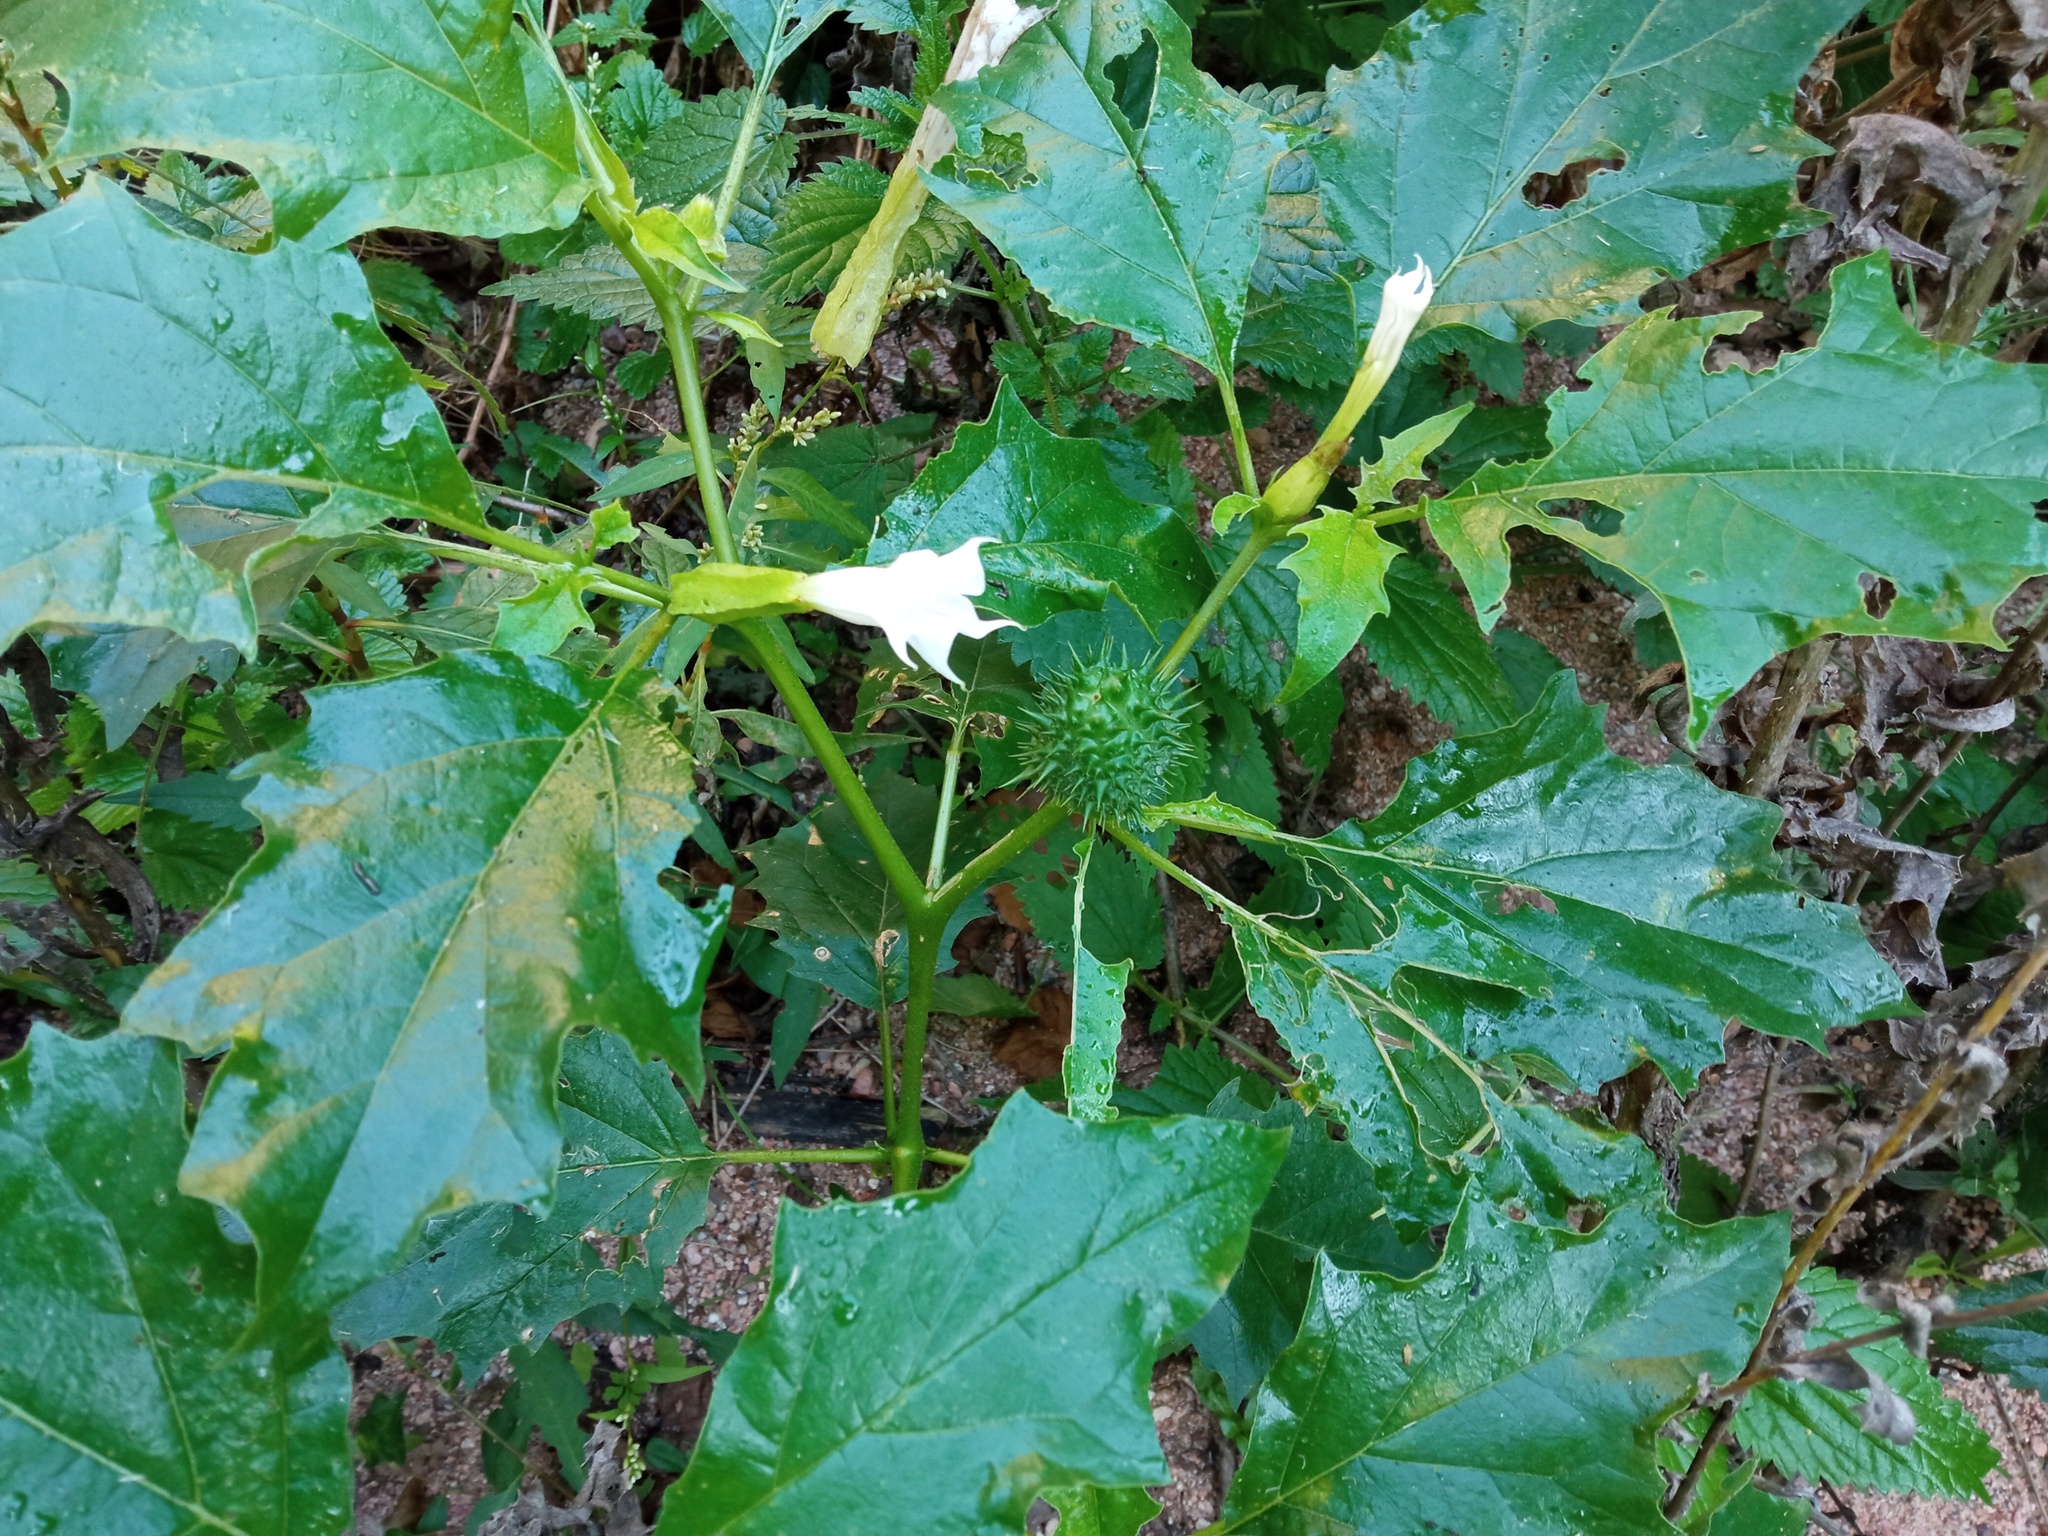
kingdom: Plantae
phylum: Tracheophyta
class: Magnoliopsida
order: Solanales
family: Solanaceae
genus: Datura
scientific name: Datura stramonium
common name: Thorn-apple
